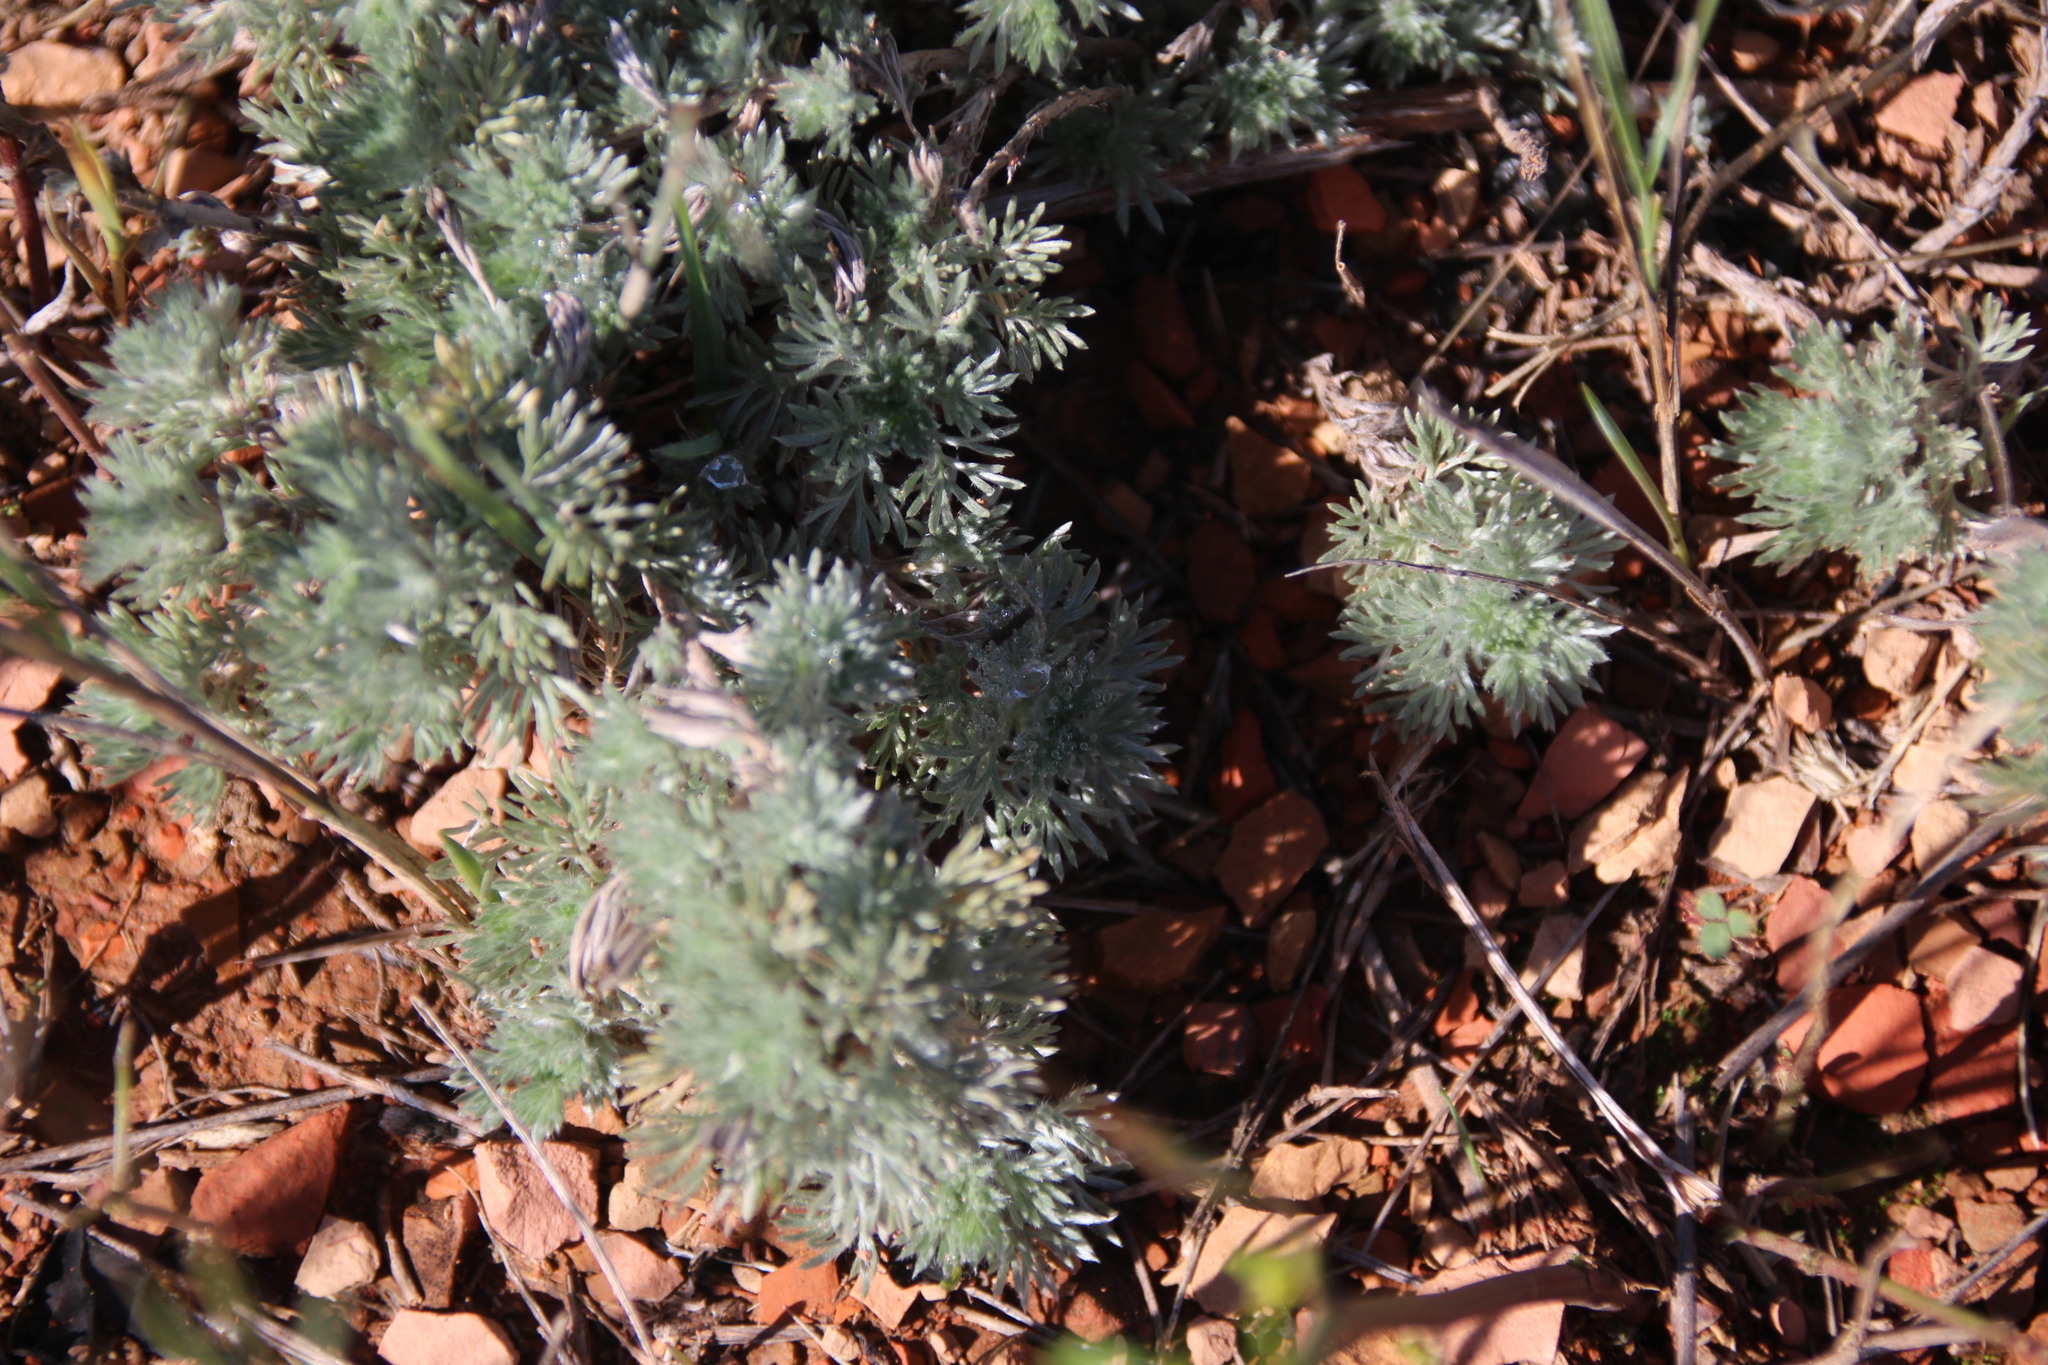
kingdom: Plantae
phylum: Tracheophyta
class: Magnoliopsida
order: Asterales
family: Asteraceae
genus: Artemisia
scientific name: Artemisia frigida
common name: Prairie sagewort
